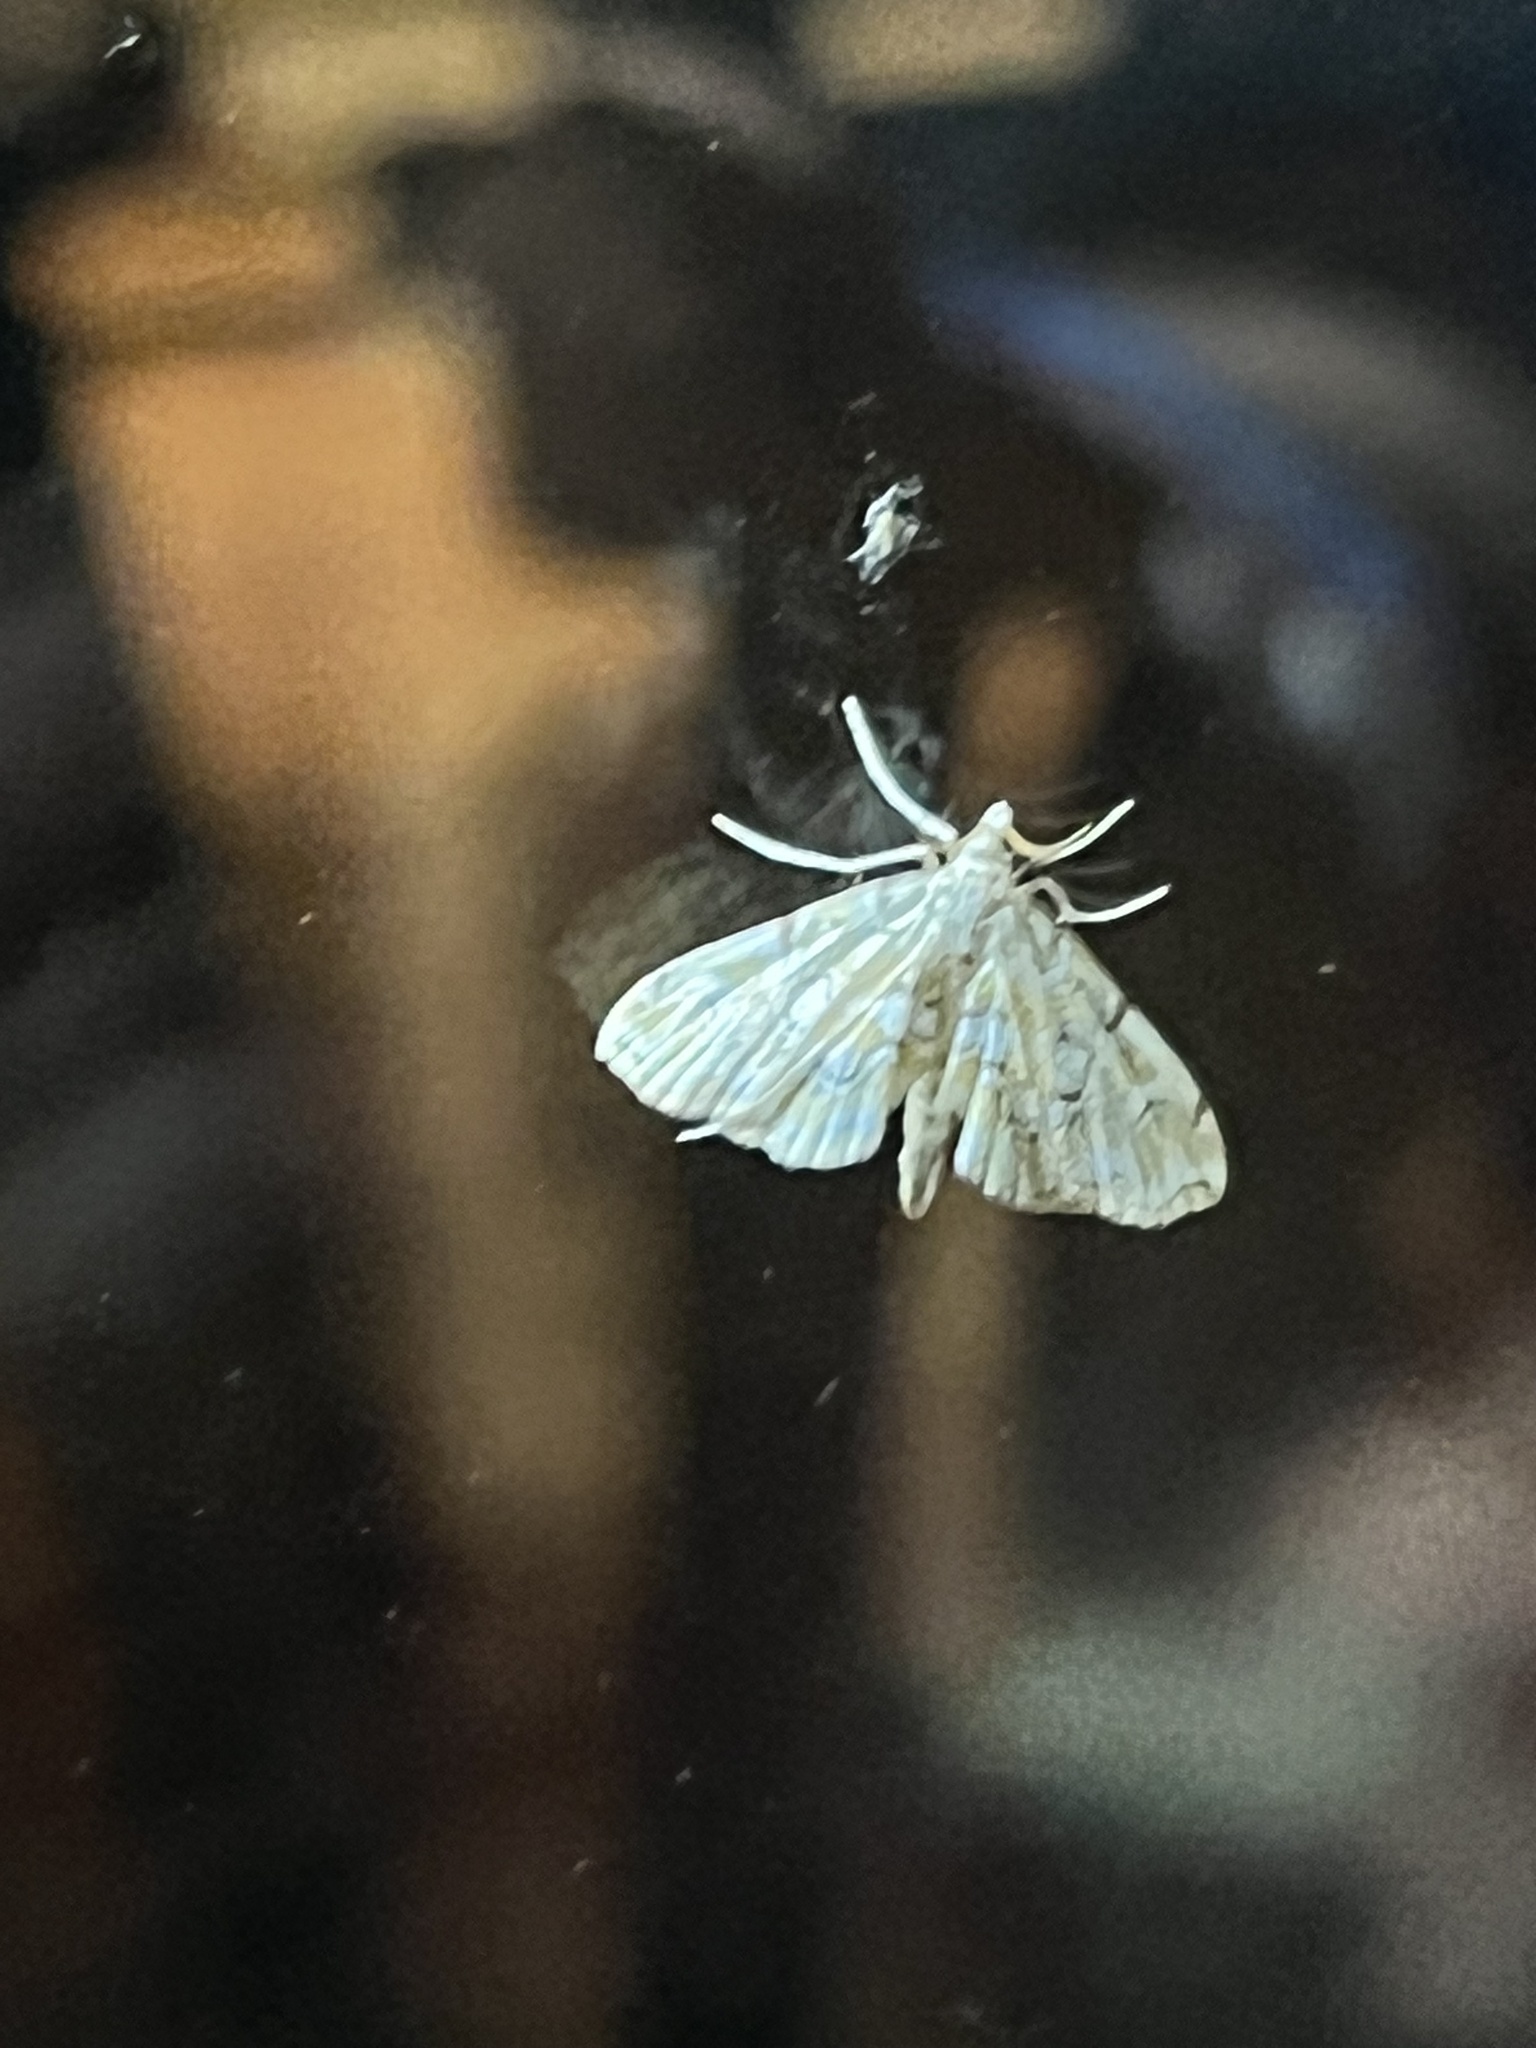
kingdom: Animalia
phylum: Arthropoda
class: Insecta
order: Lepidoptera
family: Crambidae
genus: Elophila
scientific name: Elophila icciusalis
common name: Pondside pyralid moth
